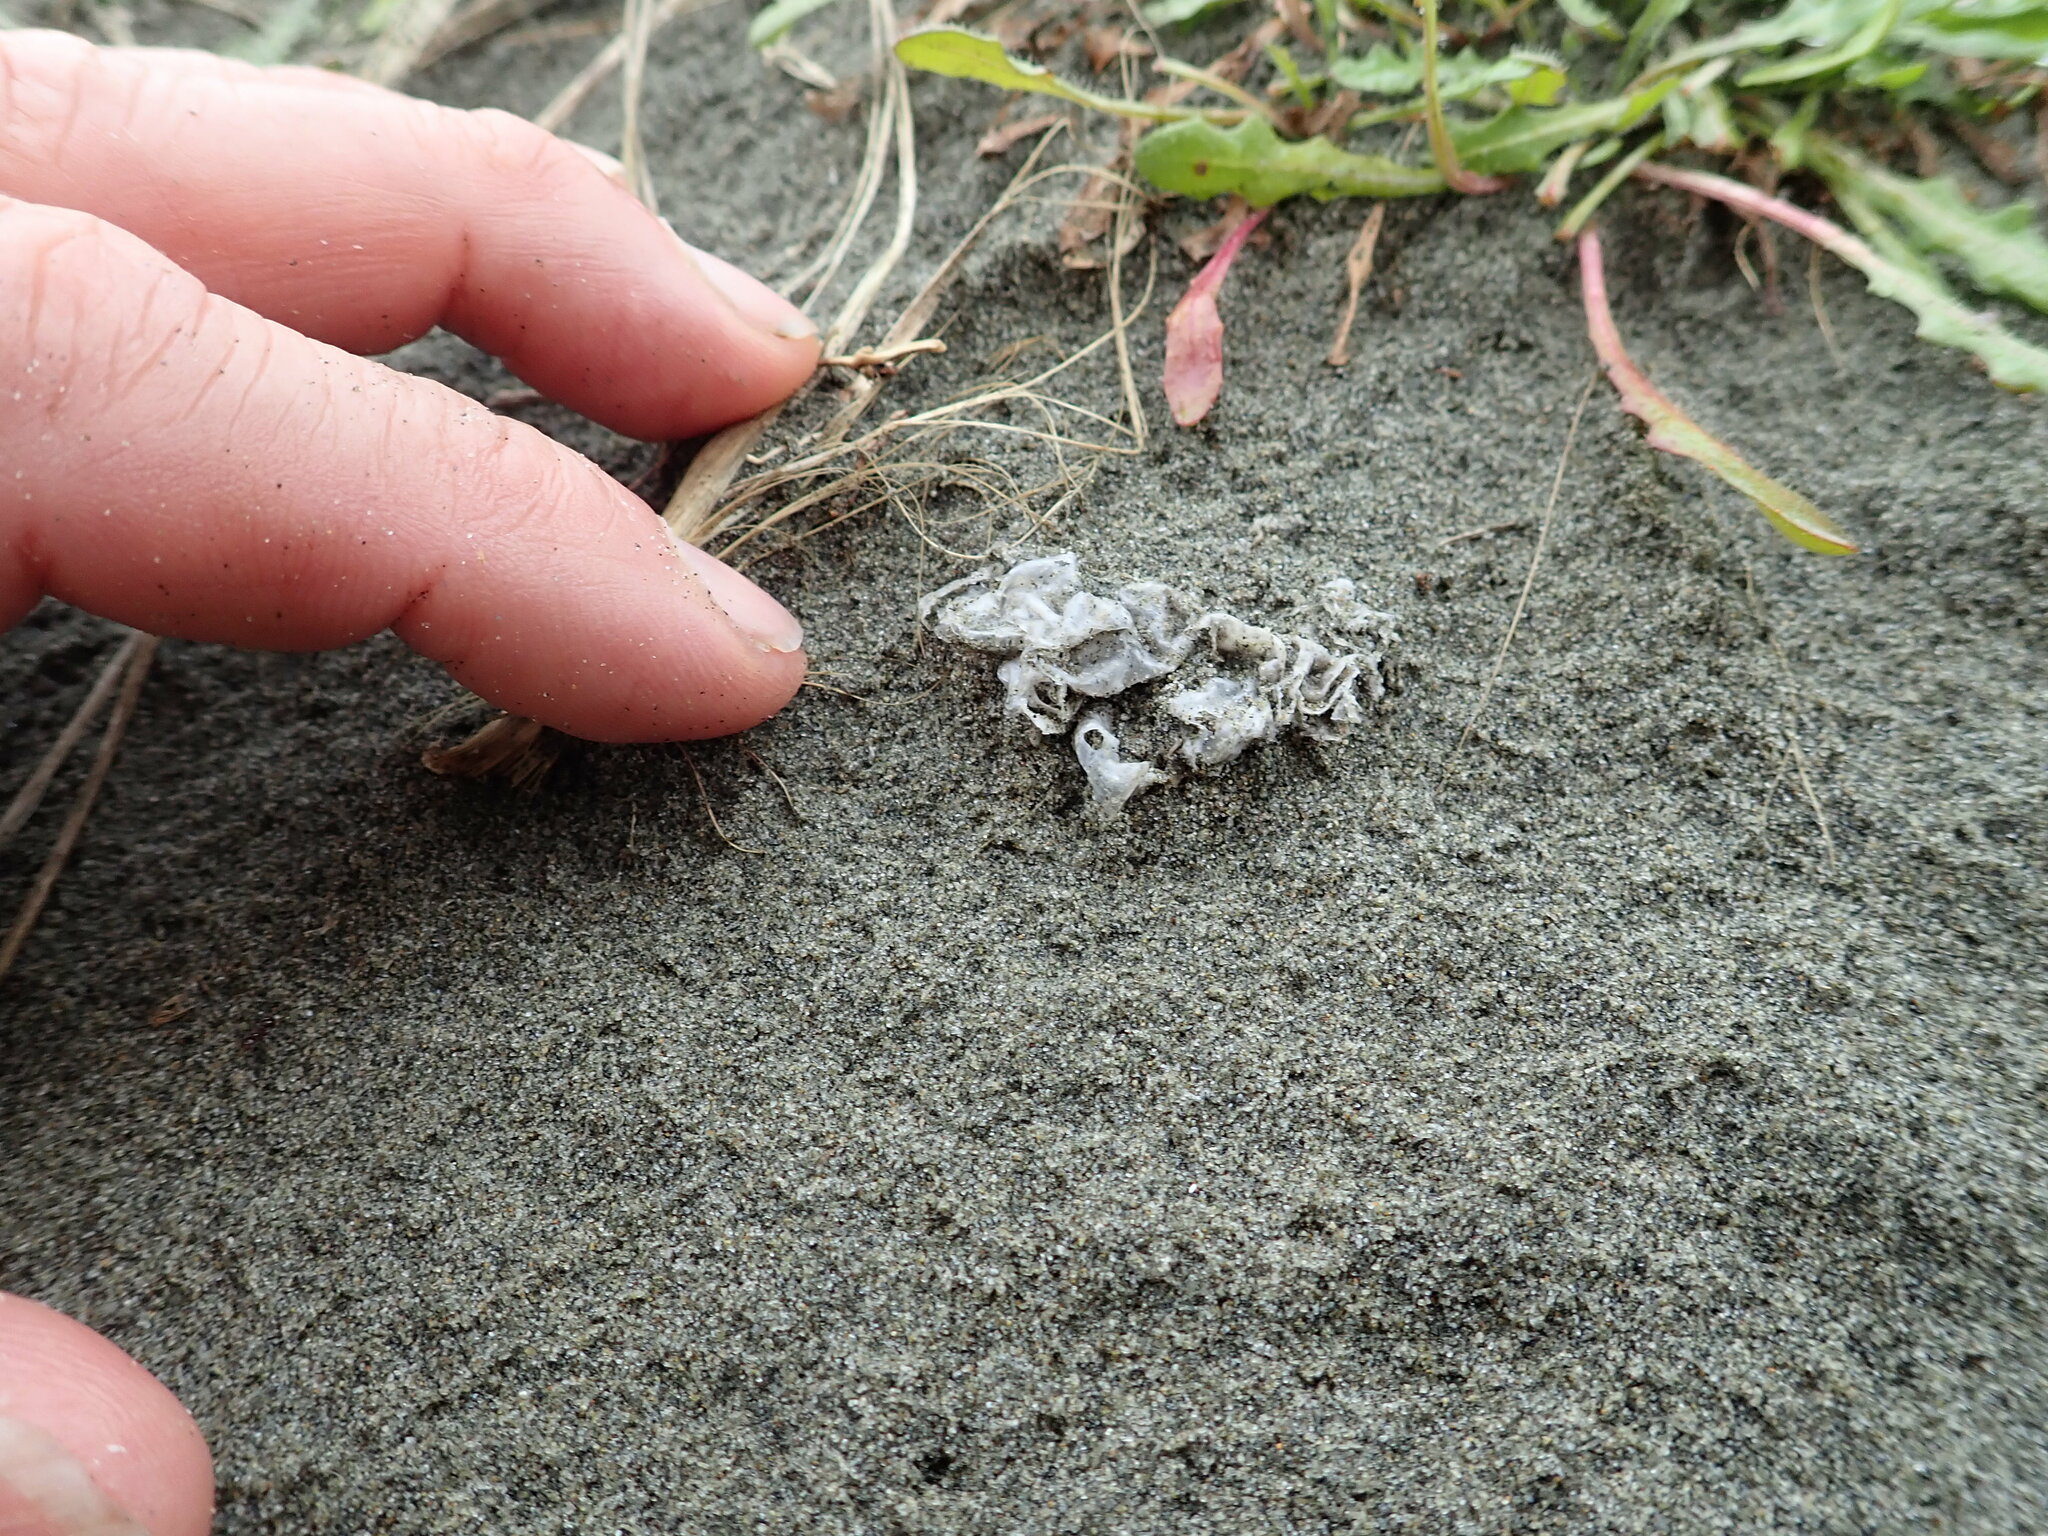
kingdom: Fungi
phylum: Basidiomycota
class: Agaricomycetes
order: Phallales
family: Phallaceae
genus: Ileodictyon
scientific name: Ileodictyon cibarium
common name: Basket fungus
